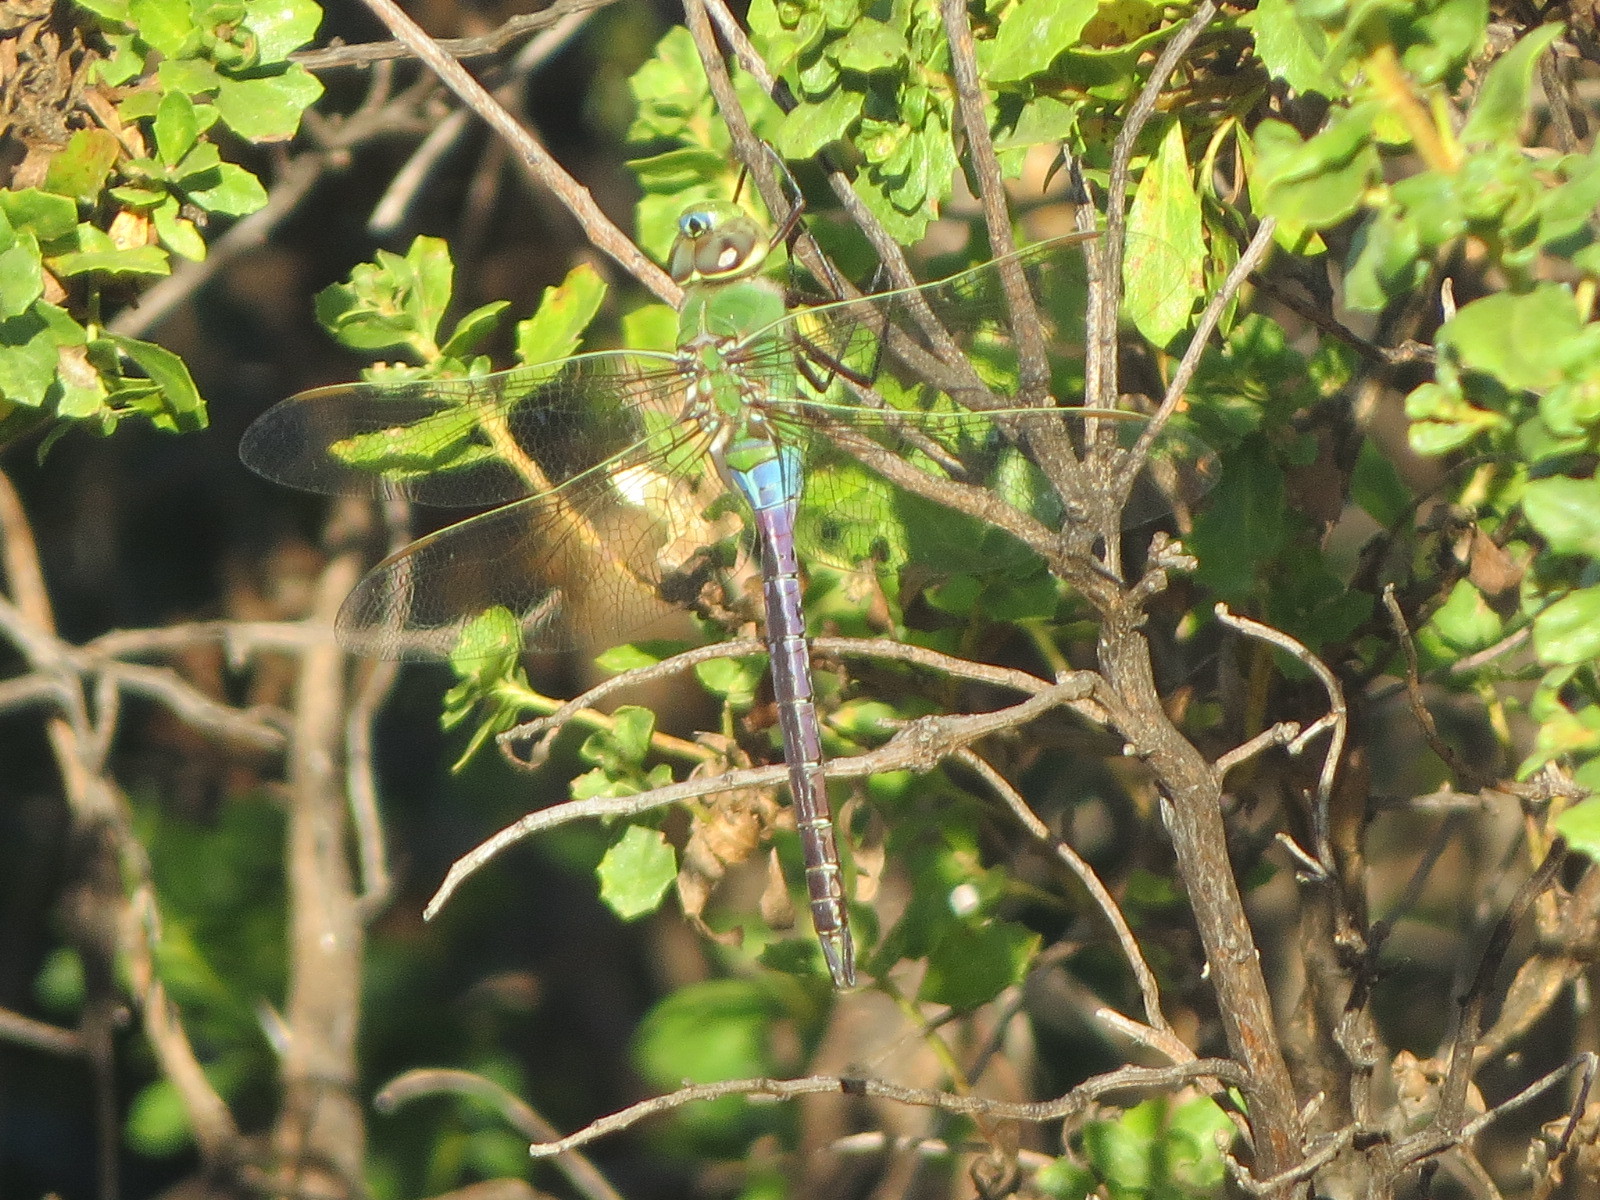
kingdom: Animalia
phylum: Arthropoda
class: Insecta
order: Odonata
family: Aeshnidae
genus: Anax
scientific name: Anax junius
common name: Common green darner
